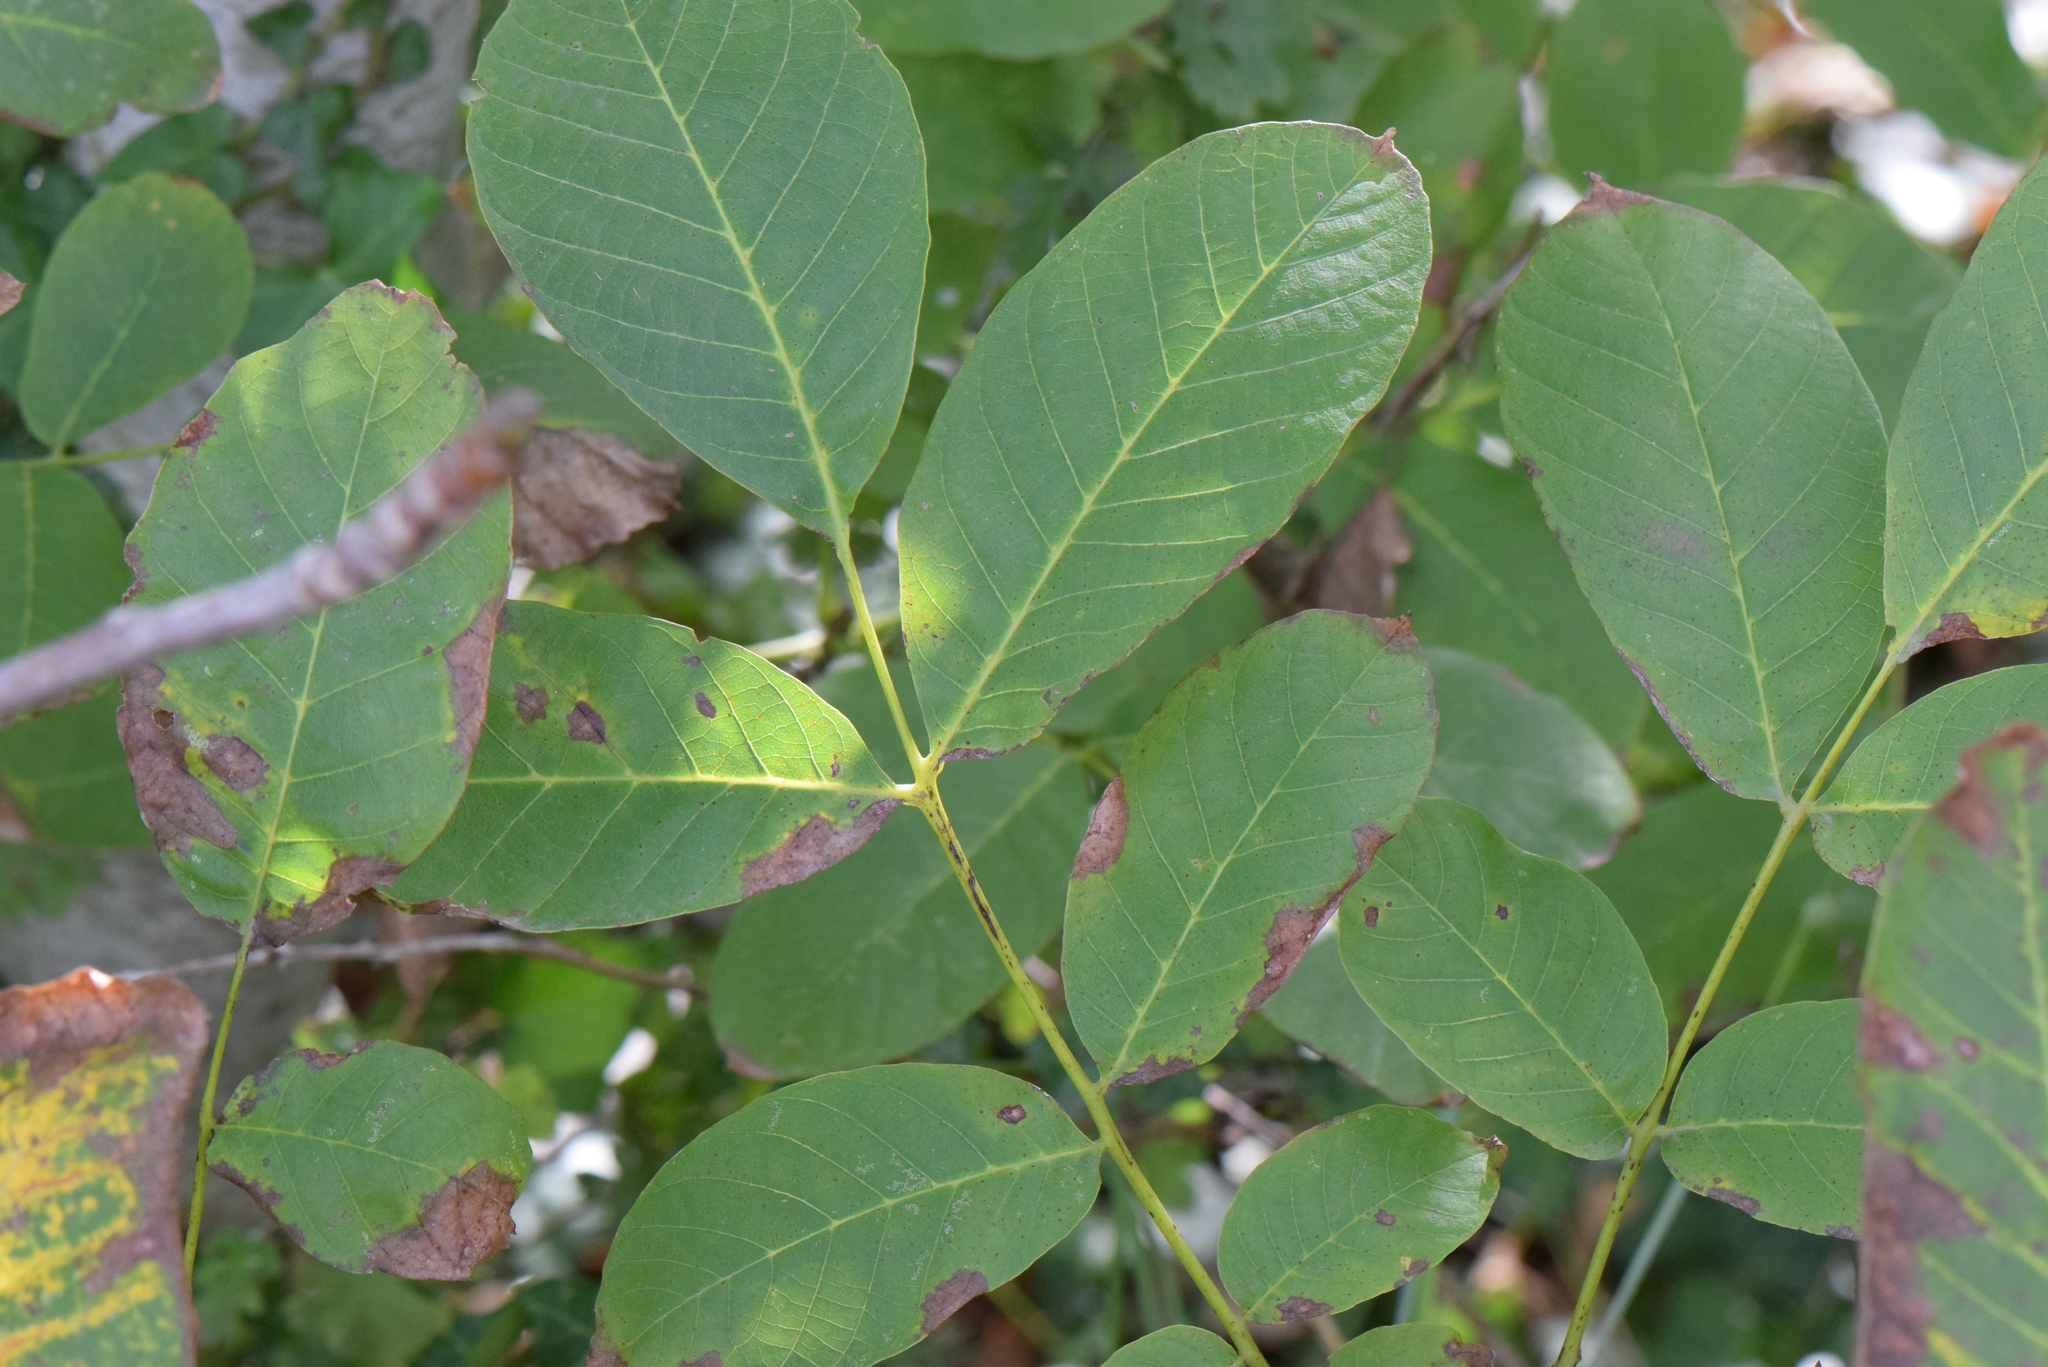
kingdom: Plantae
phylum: Tracheophyta
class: Magnoliopsida
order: Fagales
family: Juglandaceae
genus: Juglans
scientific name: Juglans regia
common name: Walnut
